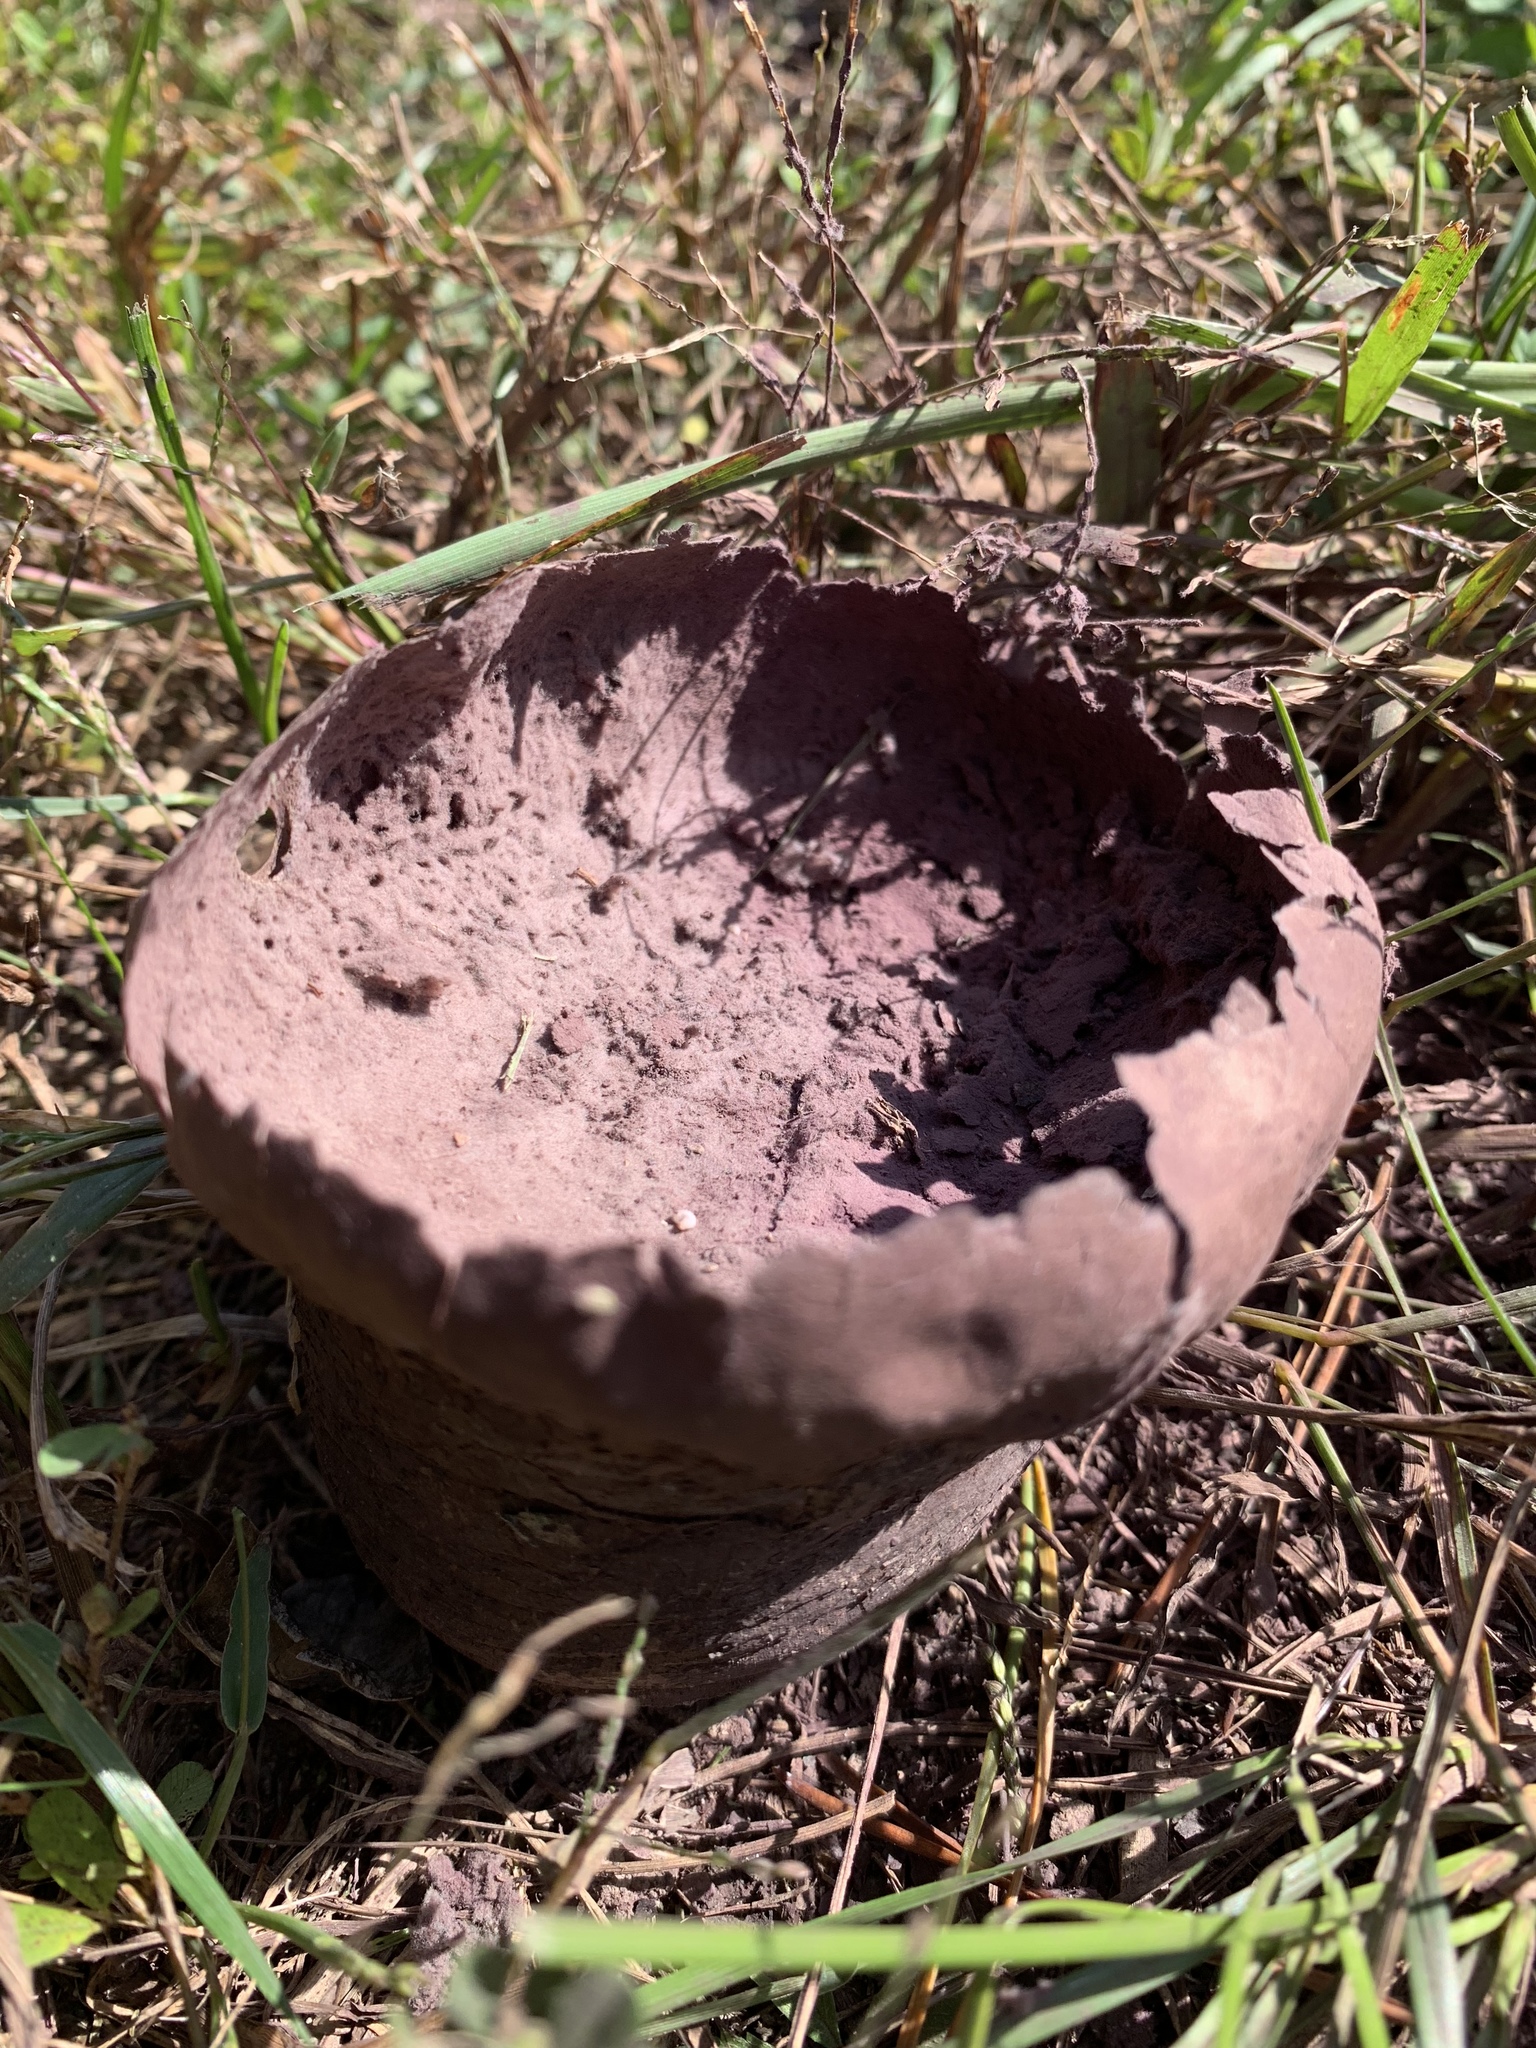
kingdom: Fungi
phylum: Basidiomycota
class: Agaricomycetes
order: Agaricales
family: Lycoperdaceae
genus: Calvatia
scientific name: Calvatia cyathiformis
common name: Purple-spored puffball
